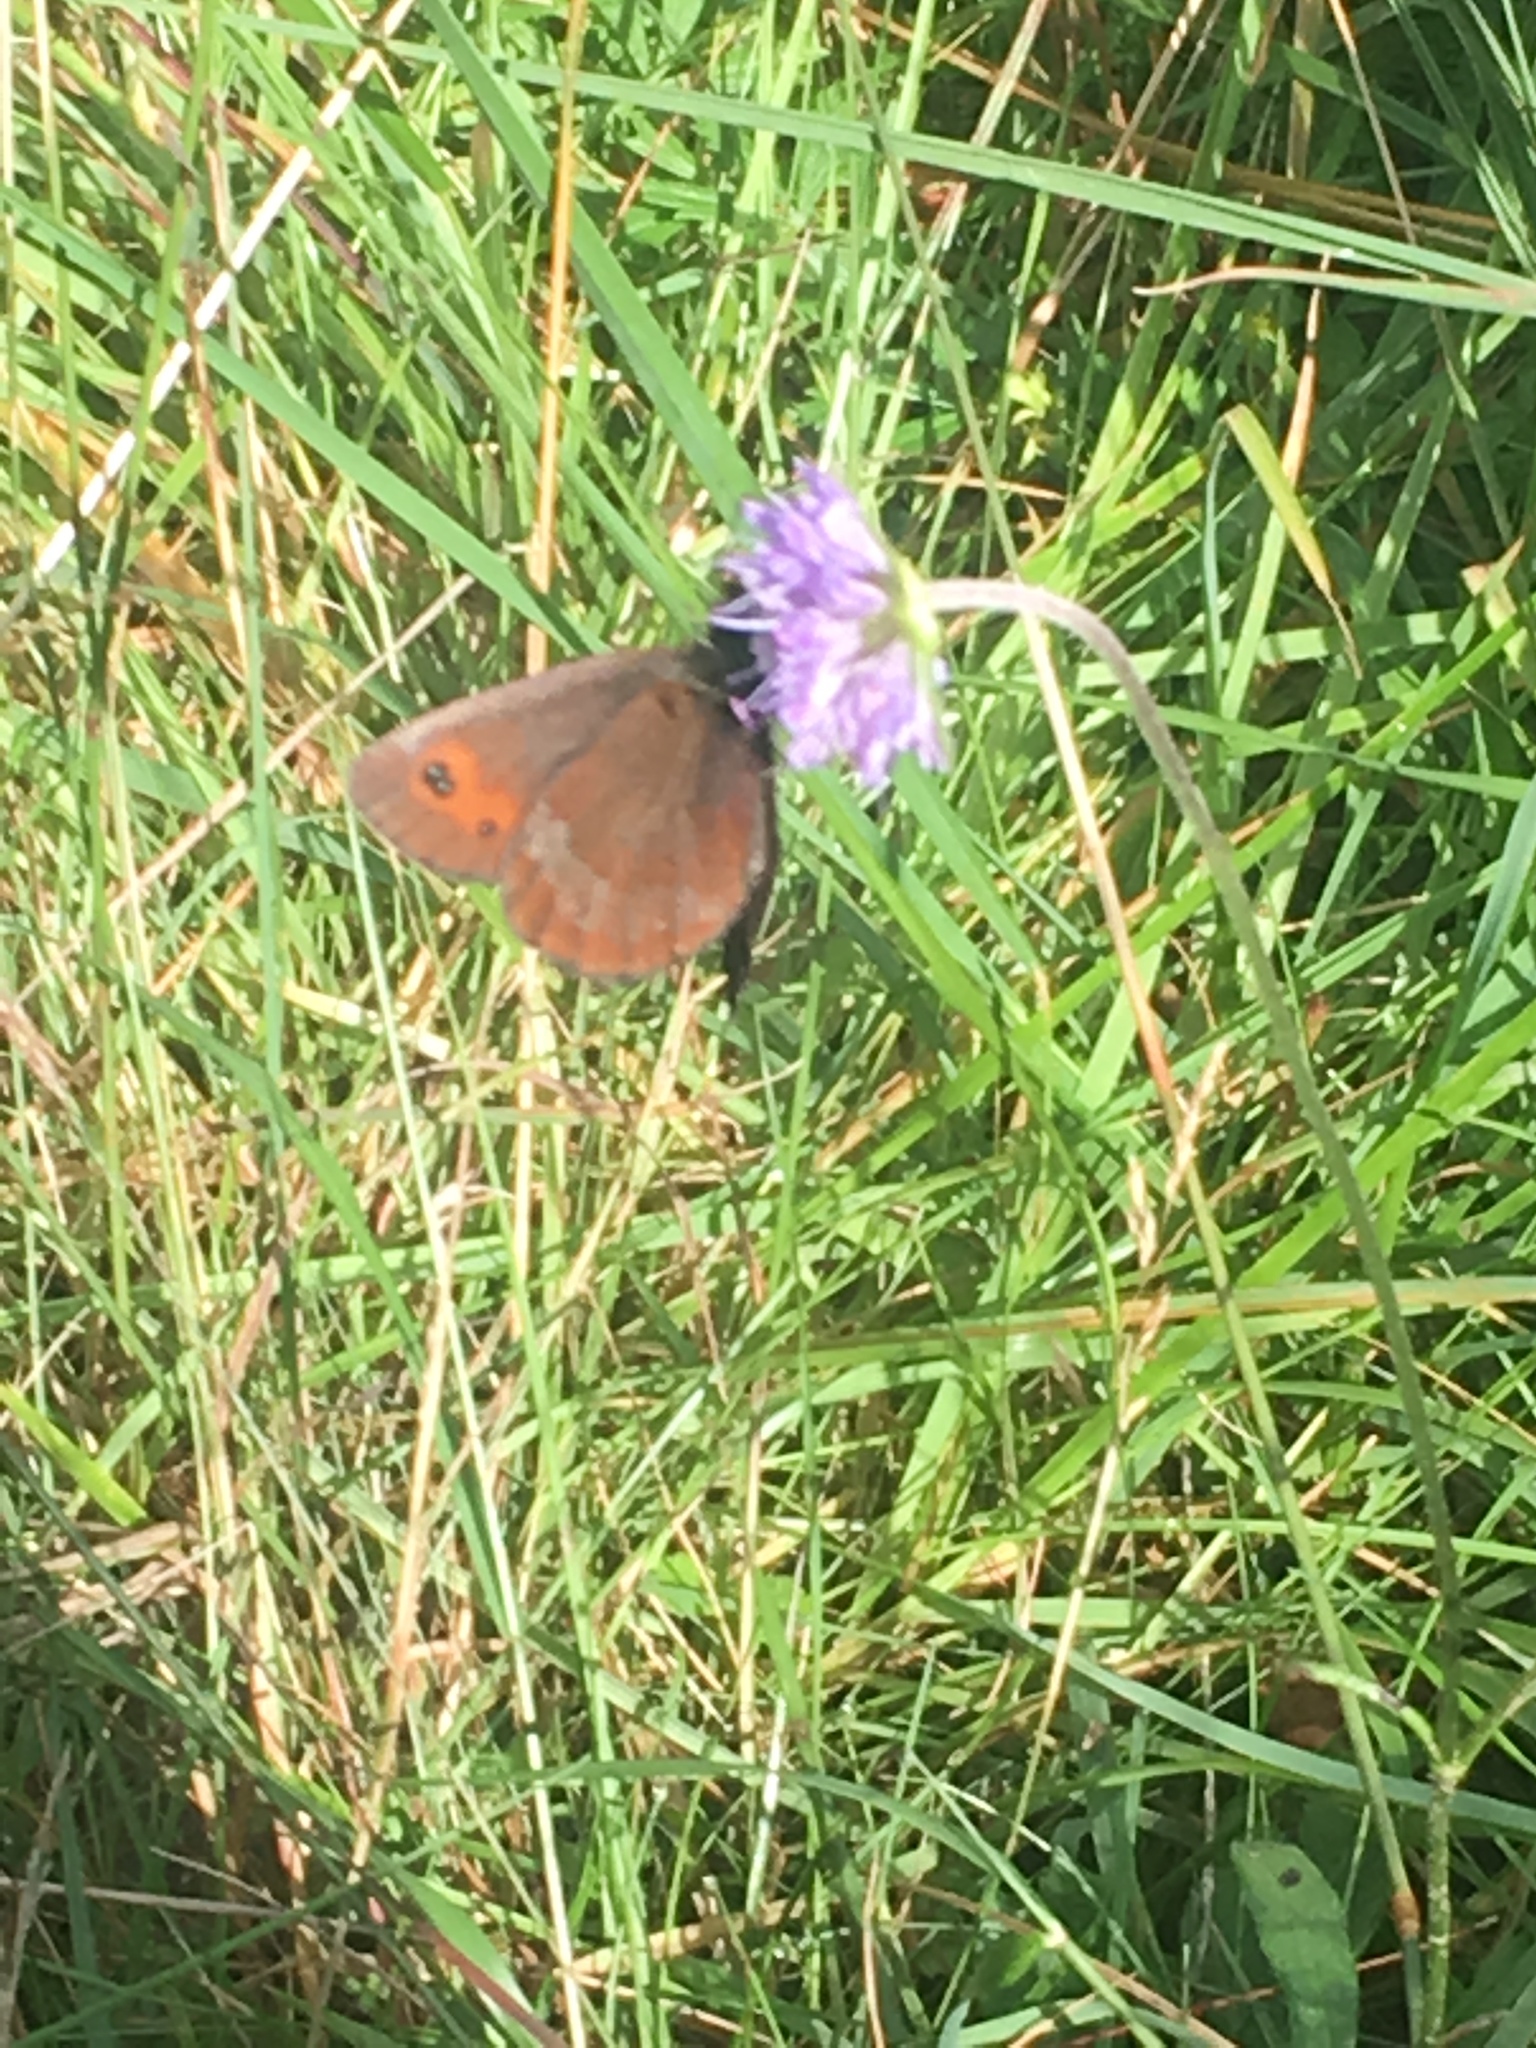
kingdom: Animalia
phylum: Arthropoda
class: Insecta
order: Lepidoptera
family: Nymphalidae
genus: Erebia
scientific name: Erebia aethiops
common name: Scotch argus
